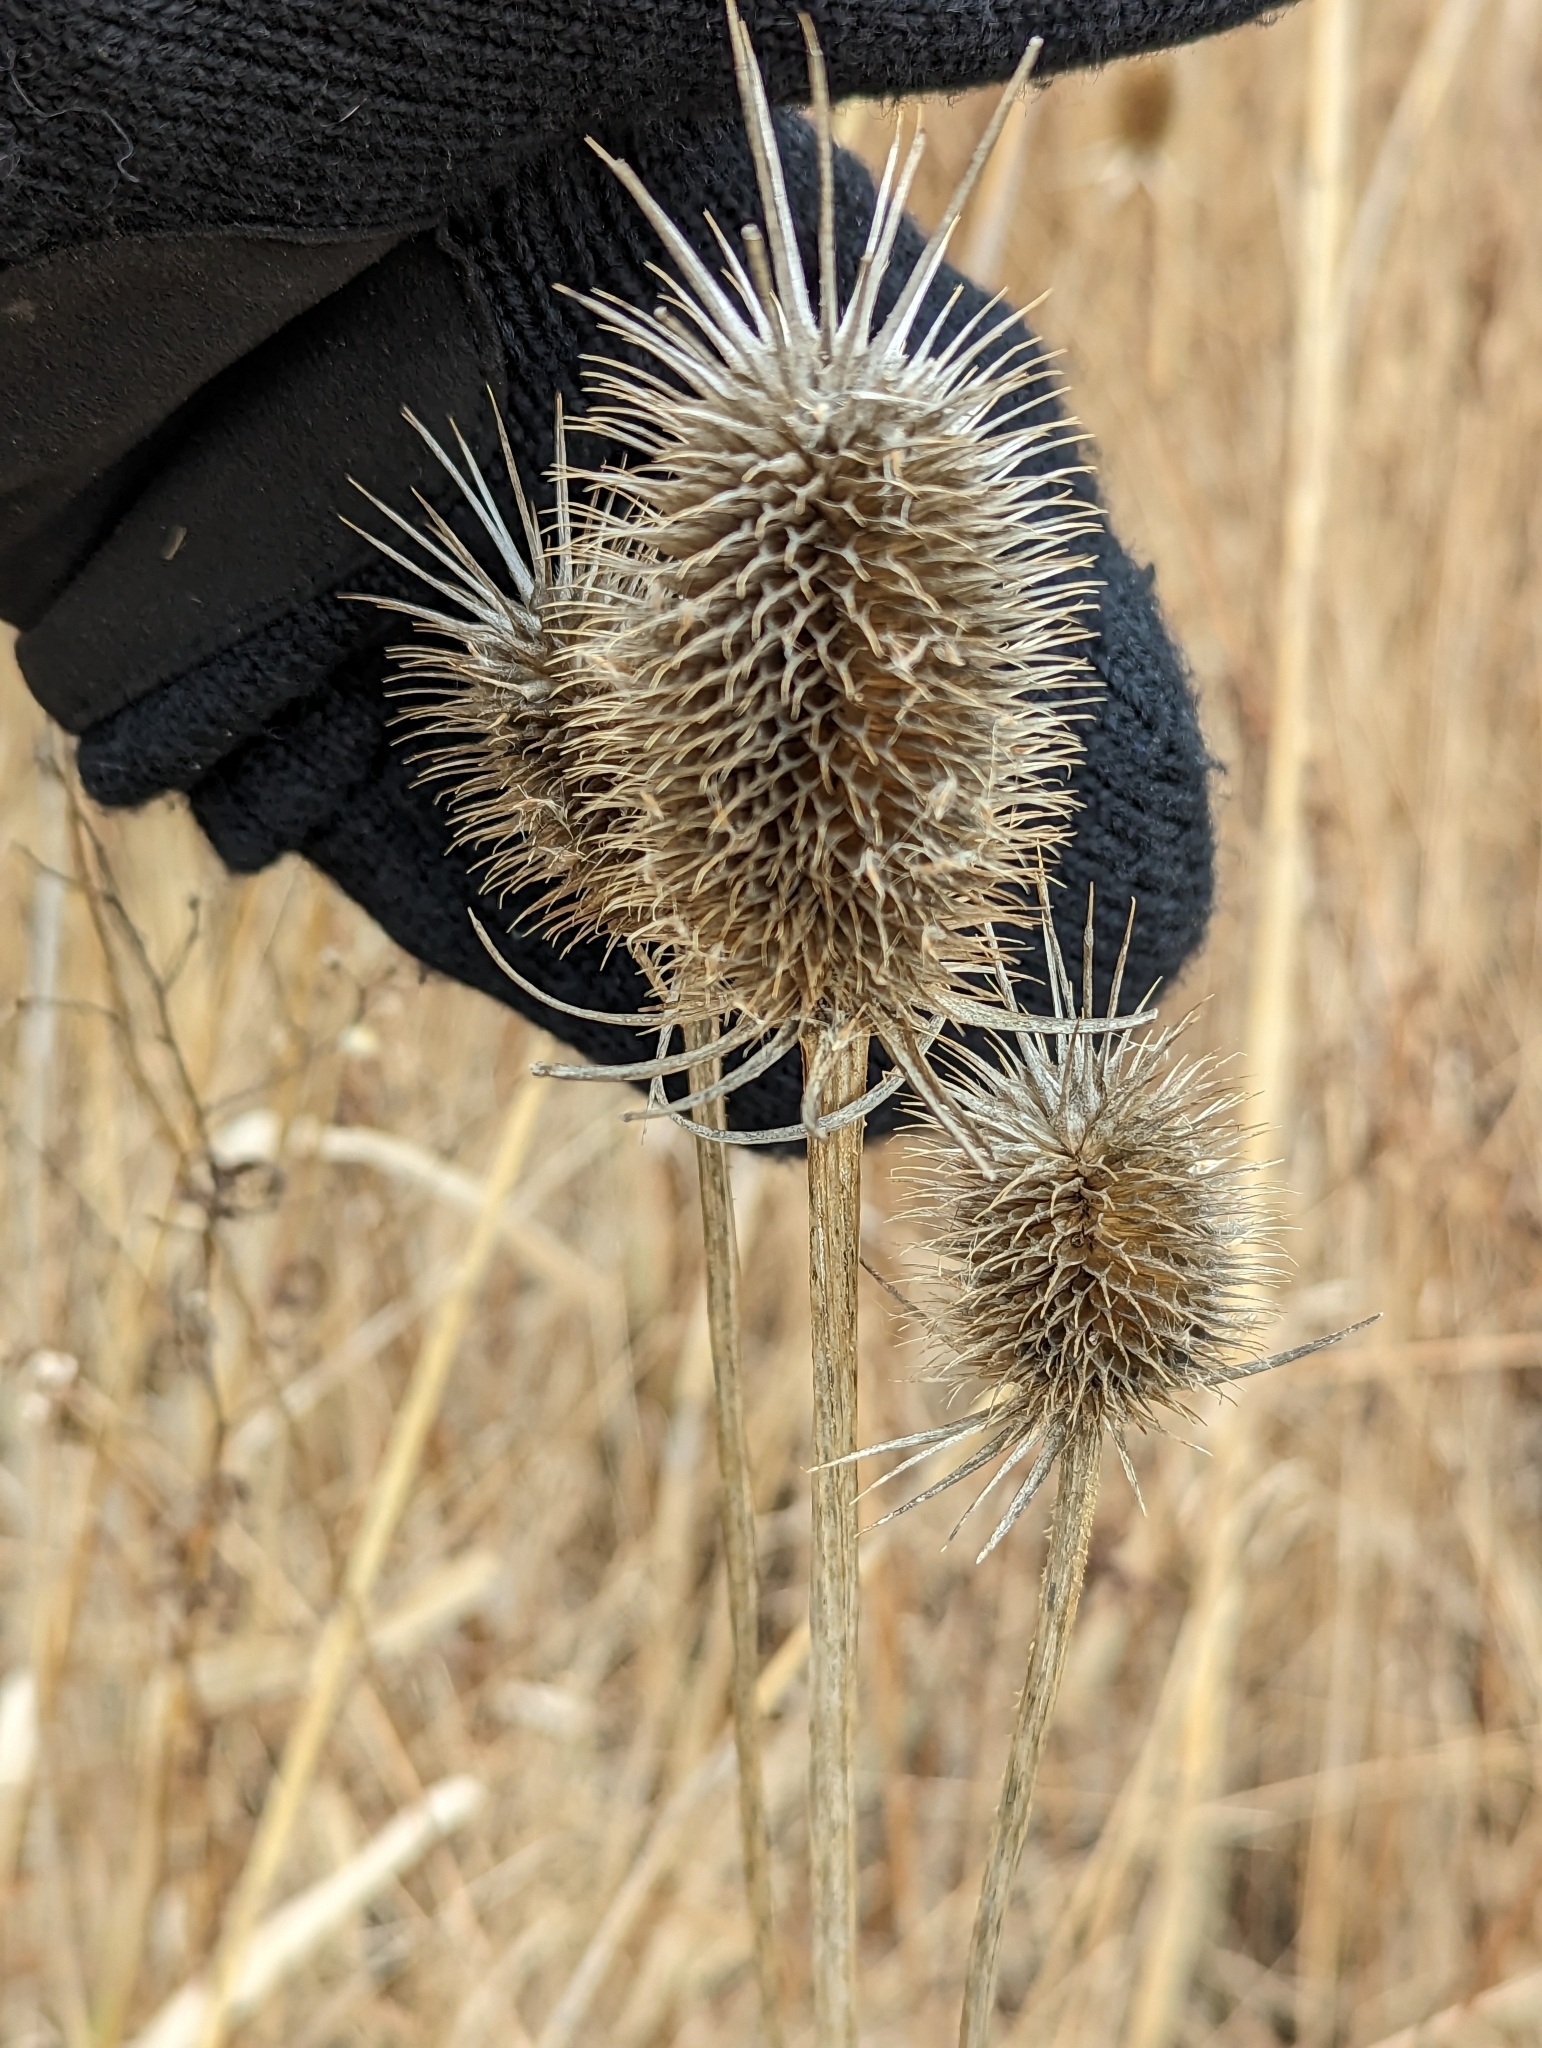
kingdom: Plantae
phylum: Tracheophyta
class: Magnoliopsida
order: Dipsacales
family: Caprifoliaceae
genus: Dipsacus
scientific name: Dipsacus laciniatus
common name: Cut-leaved teasel
